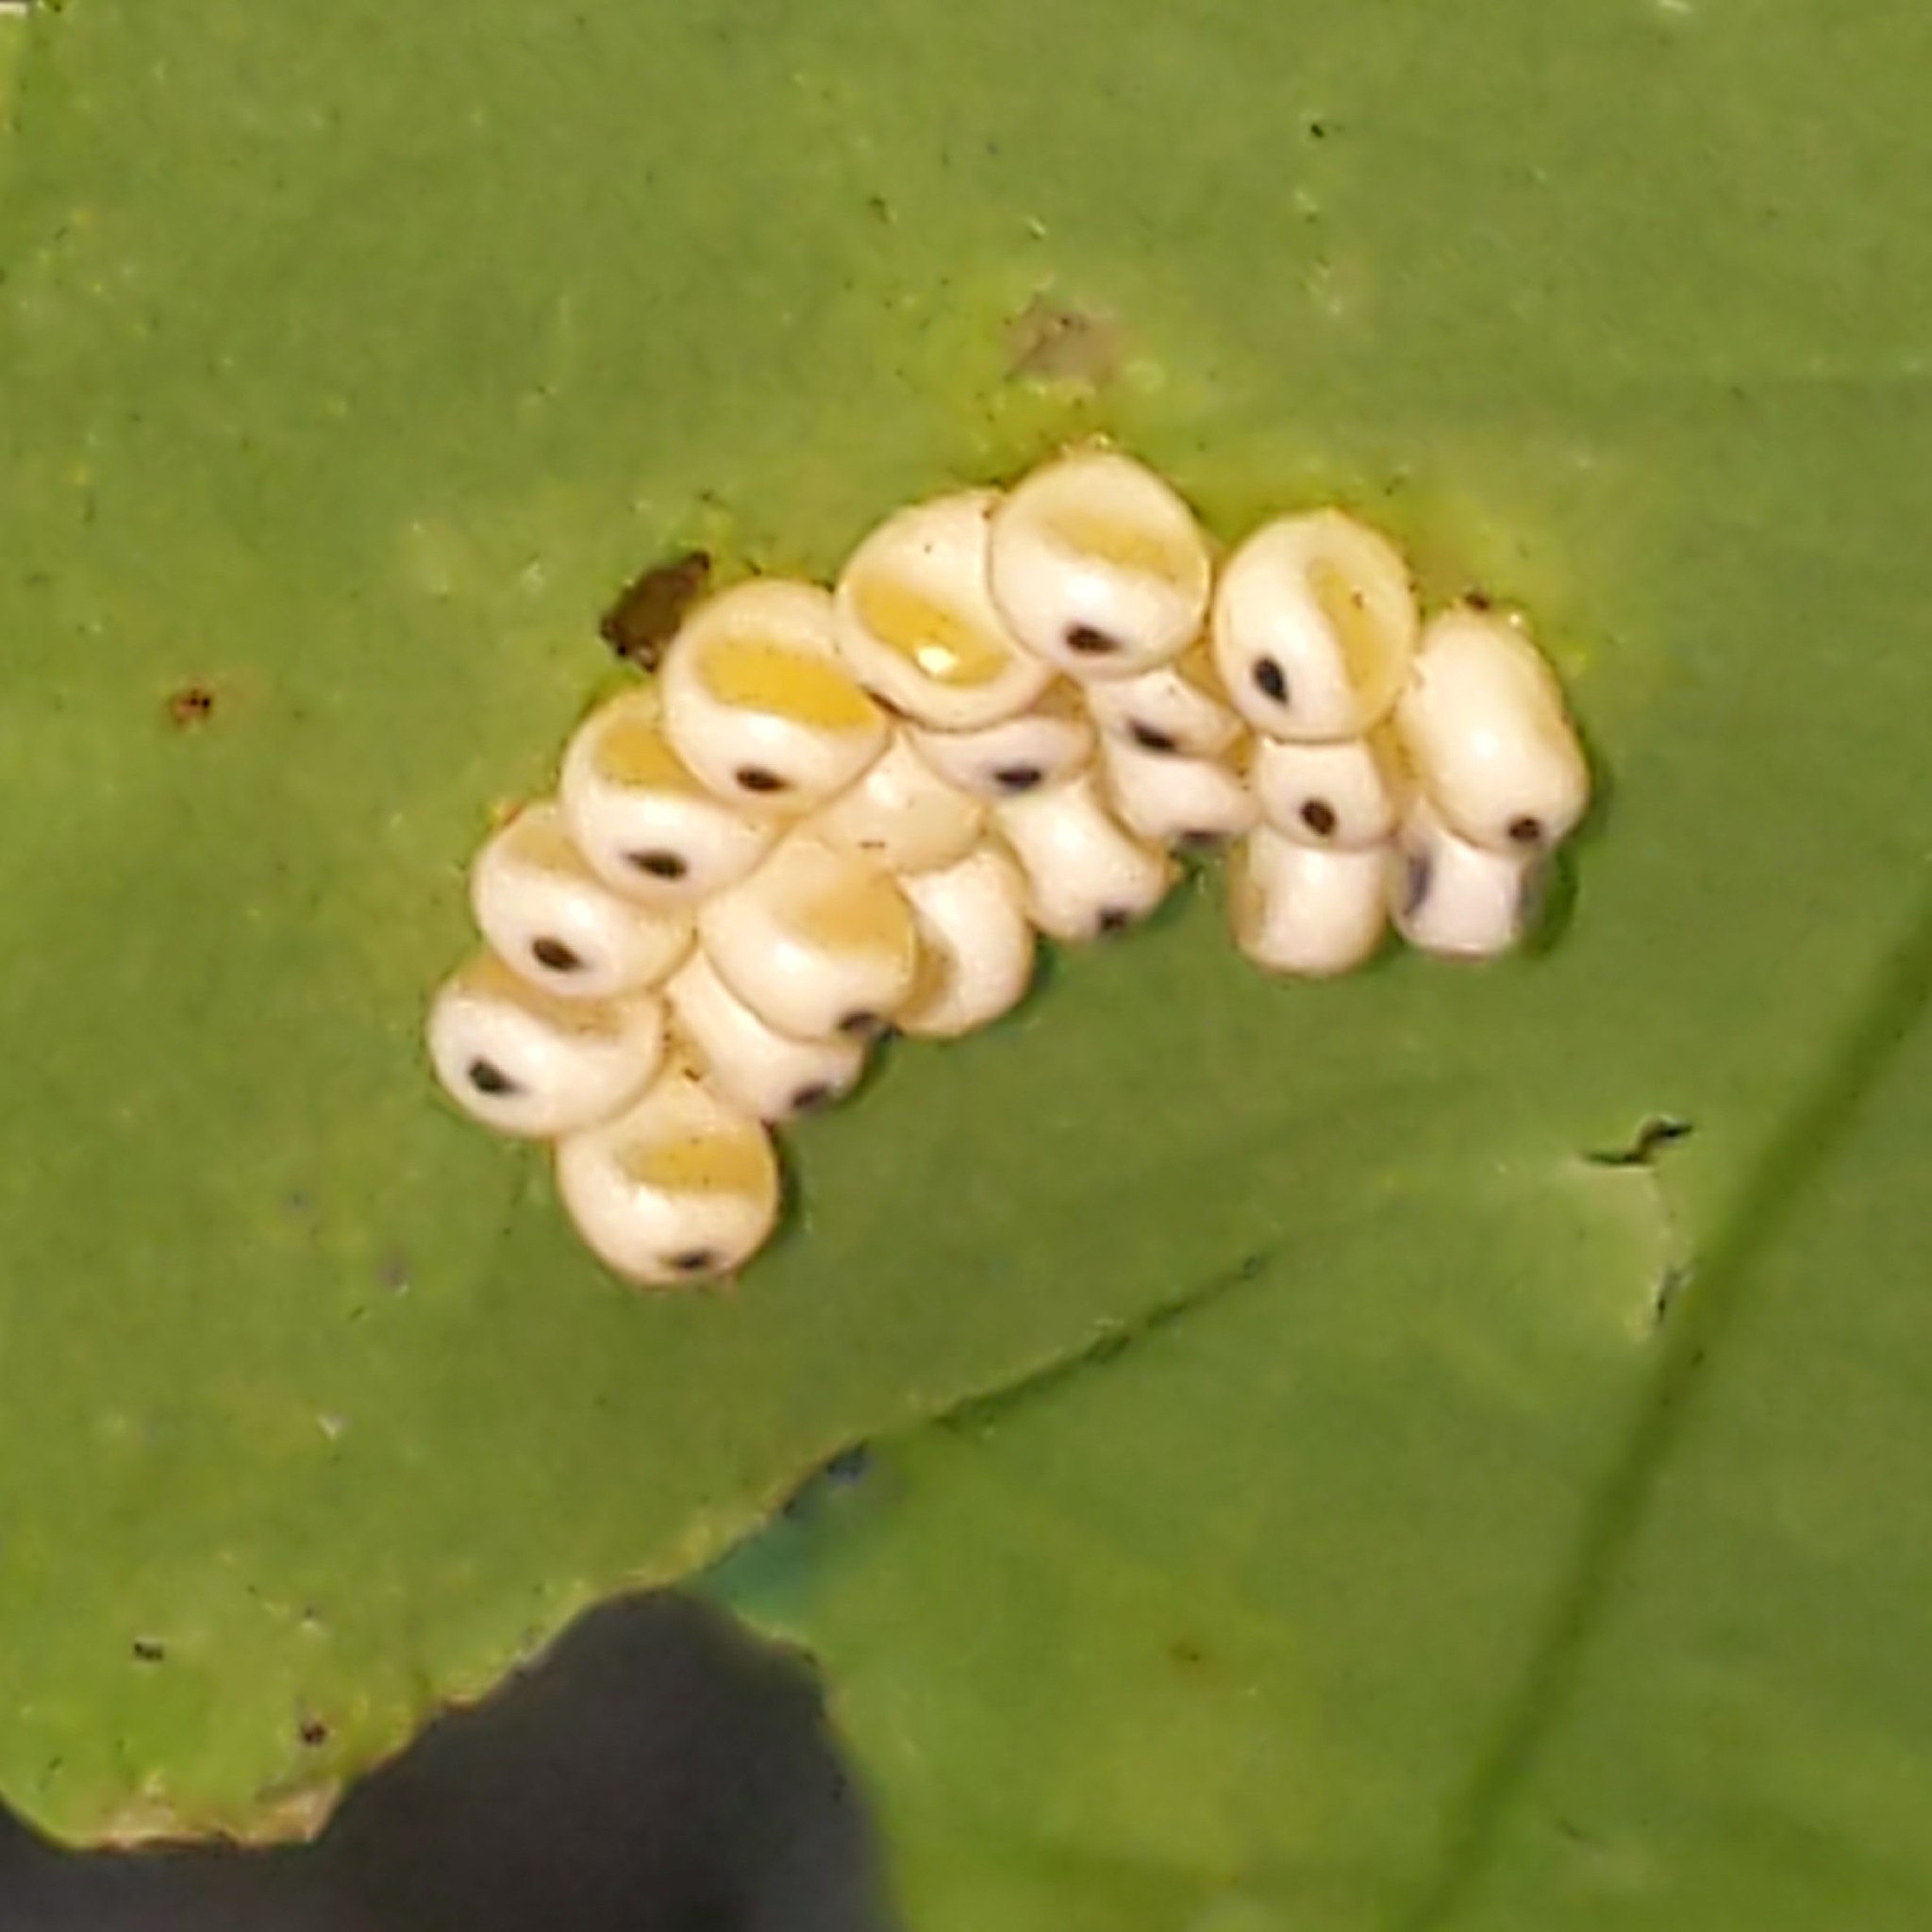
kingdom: Animalia
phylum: Arthropoda
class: Insecta
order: Lepidoptera
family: Saturniidae
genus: Automeris
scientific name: Automeris io
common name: Io moth
